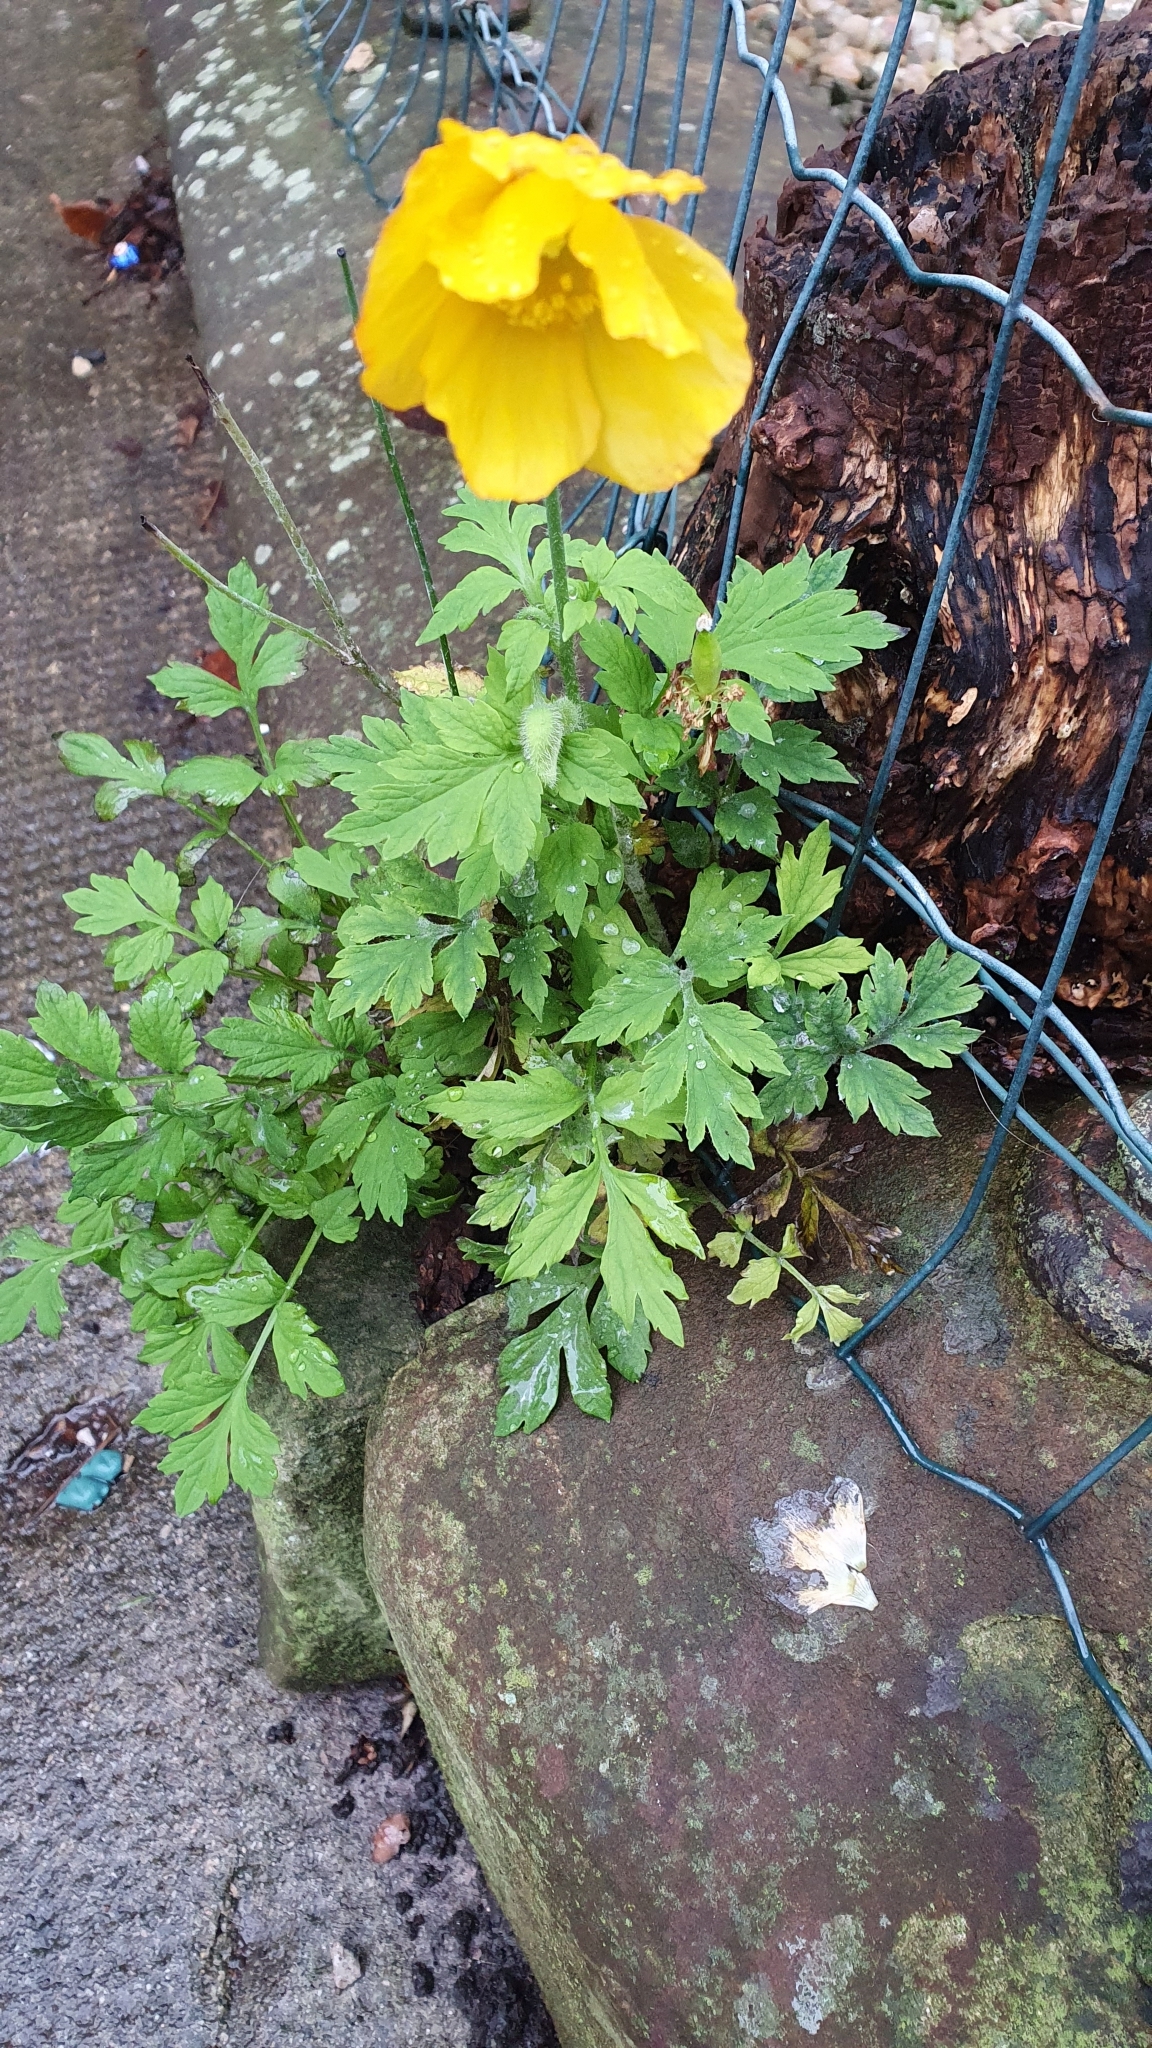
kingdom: Plantae
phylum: Tracheophyta
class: Magnoliopsida
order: Ranunculales
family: Papaveraceae
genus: Papaver
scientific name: Papaver cambricum
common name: Poppy
